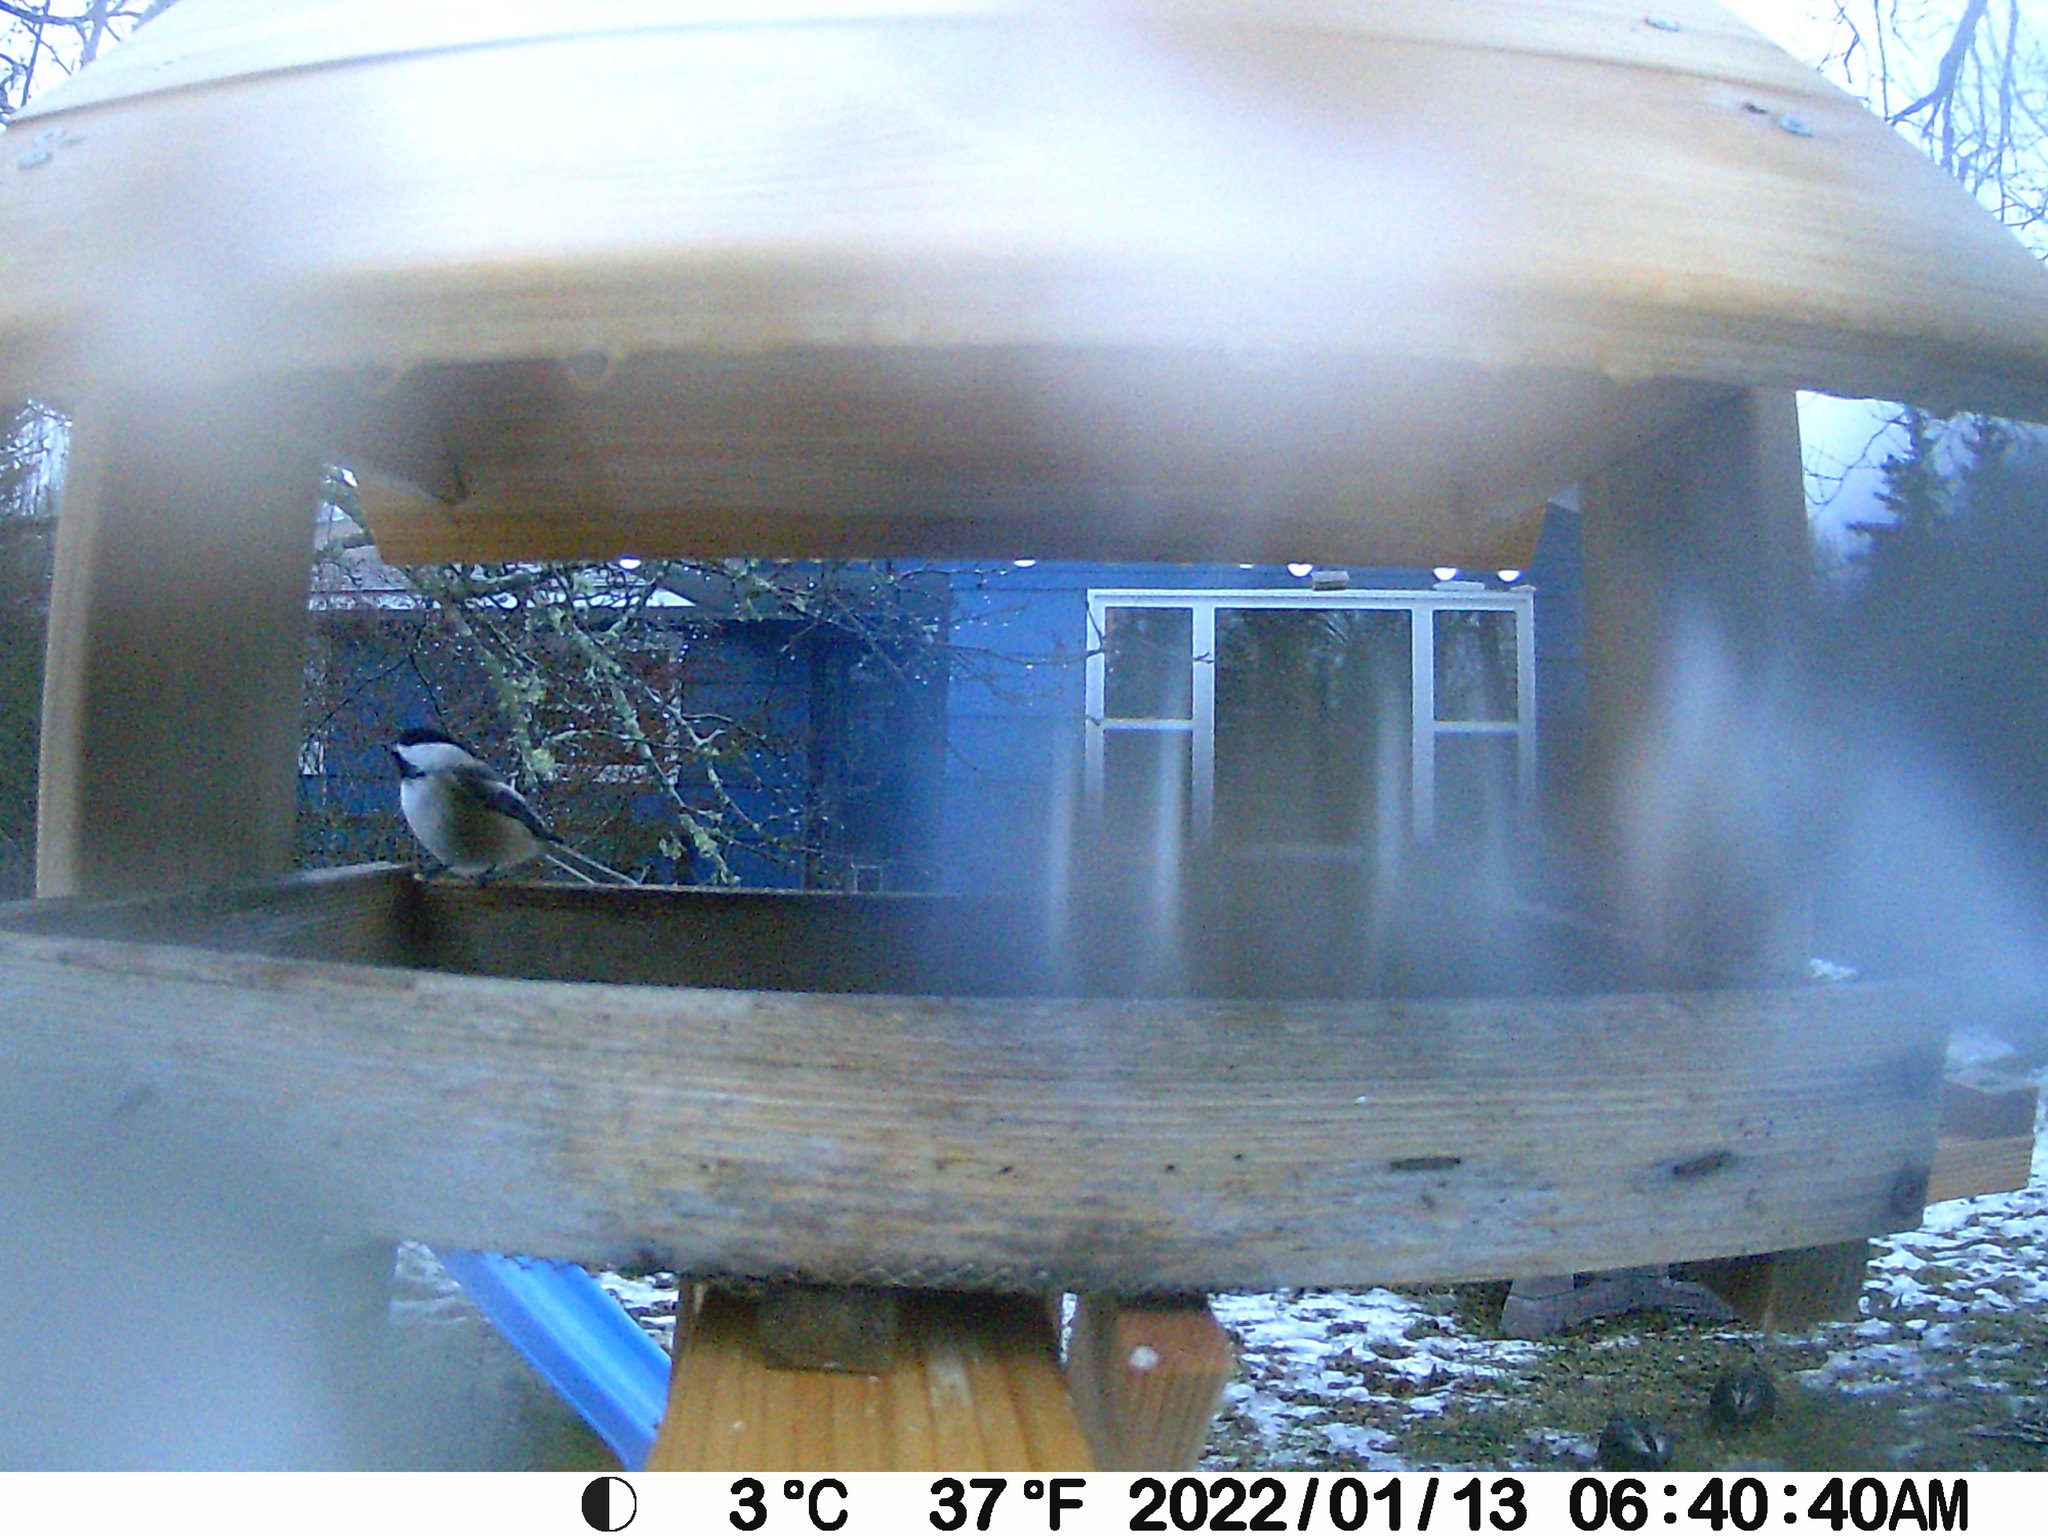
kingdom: Animalia
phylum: Chordata
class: Aves
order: Passeriformes
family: Paridae
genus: Poecile
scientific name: Poecile atricapillus
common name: Black-capped chickadee
